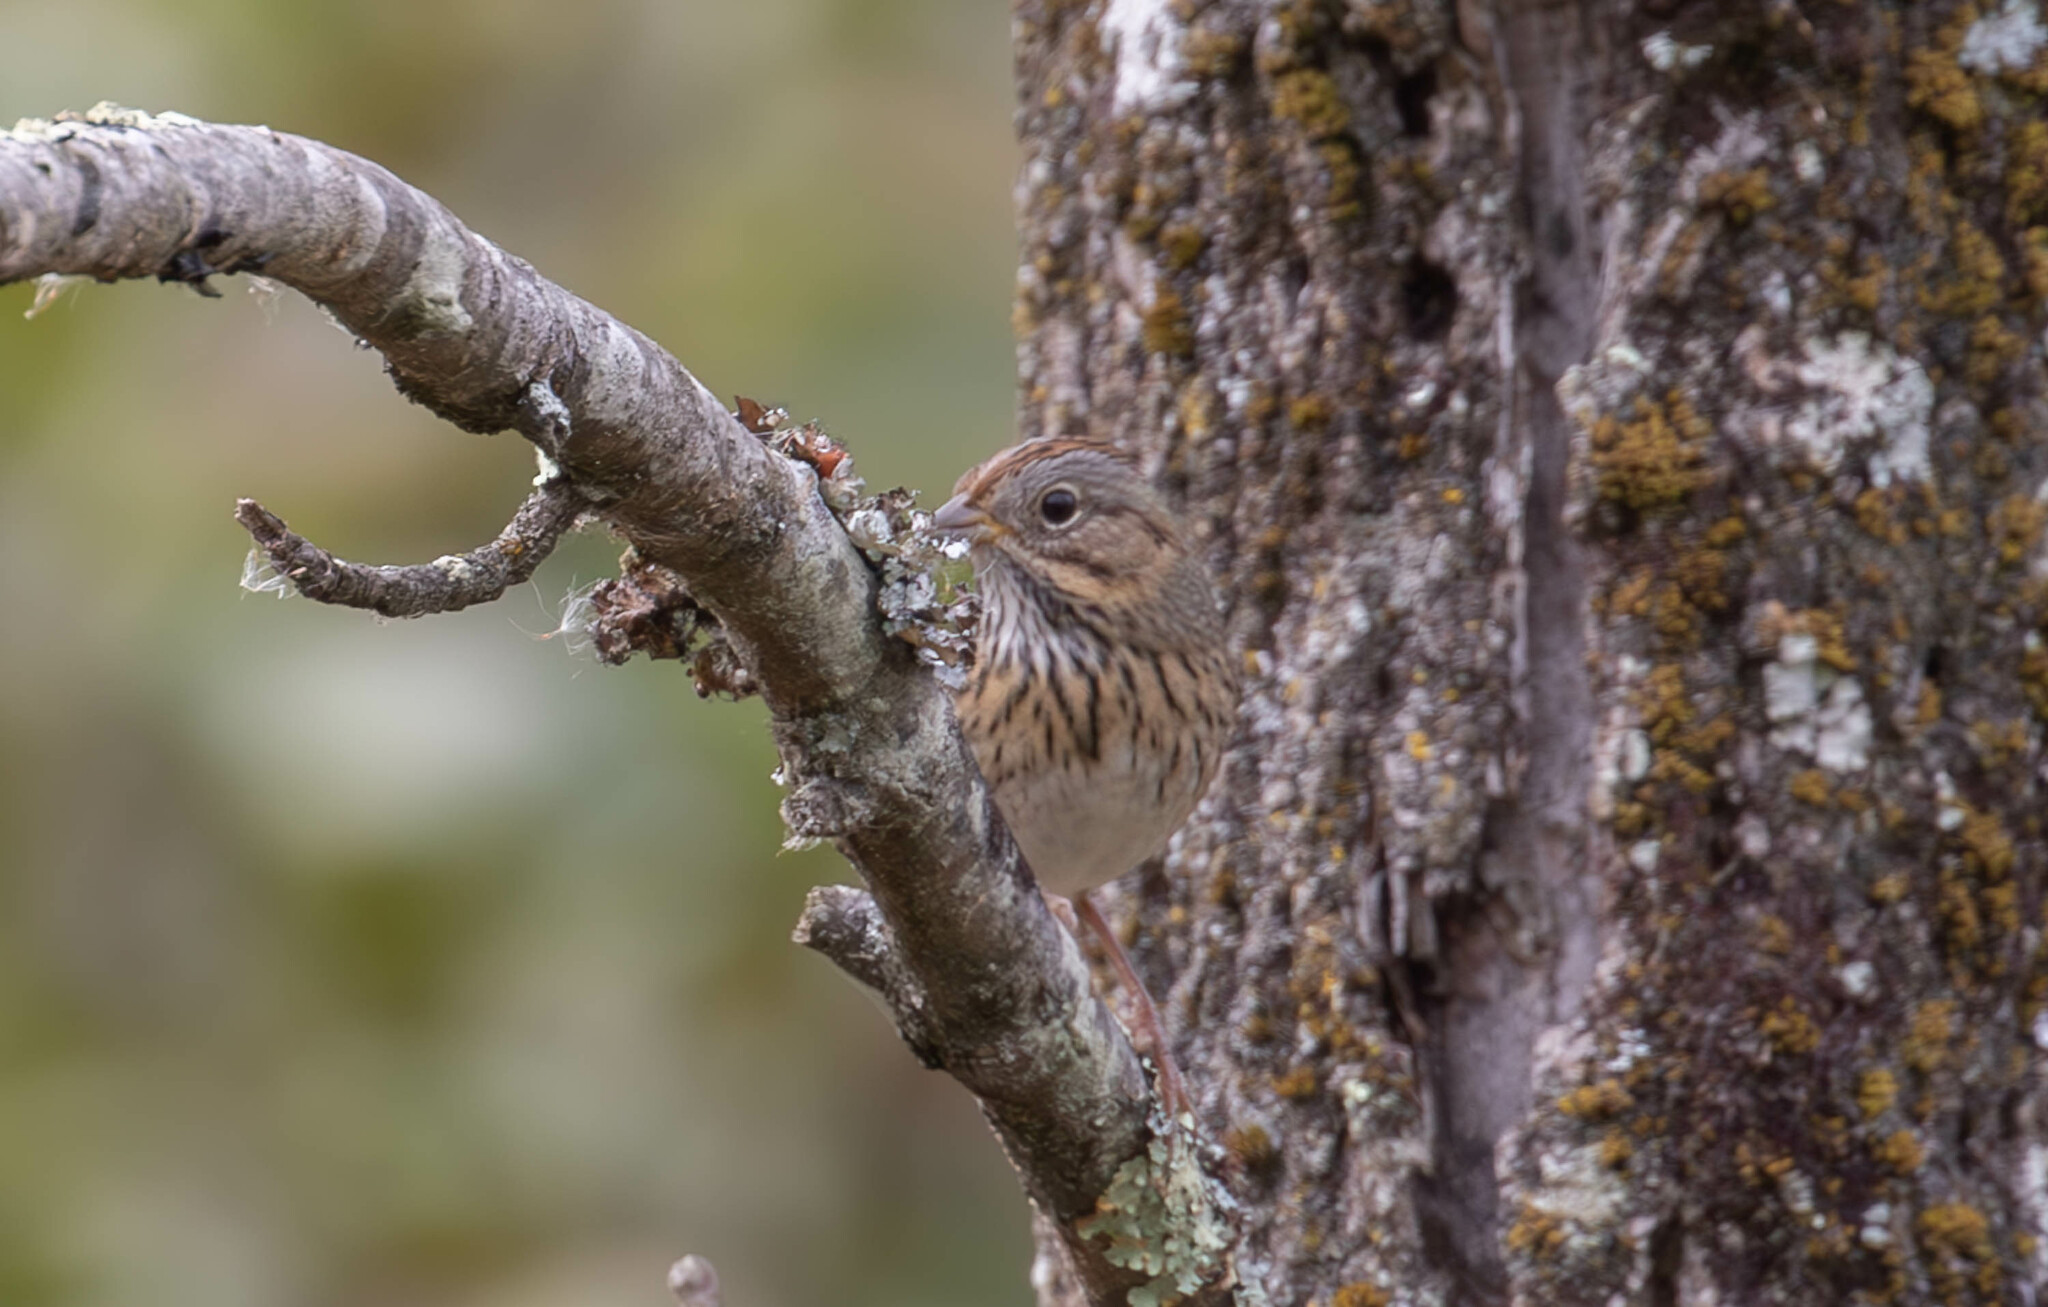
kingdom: Animalia
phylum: Chordata
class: Aves
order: Passeriformes
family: Passerellidae
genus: Melospiza
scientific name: Melospiza lincolnii
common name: Lincoln's sparrow
